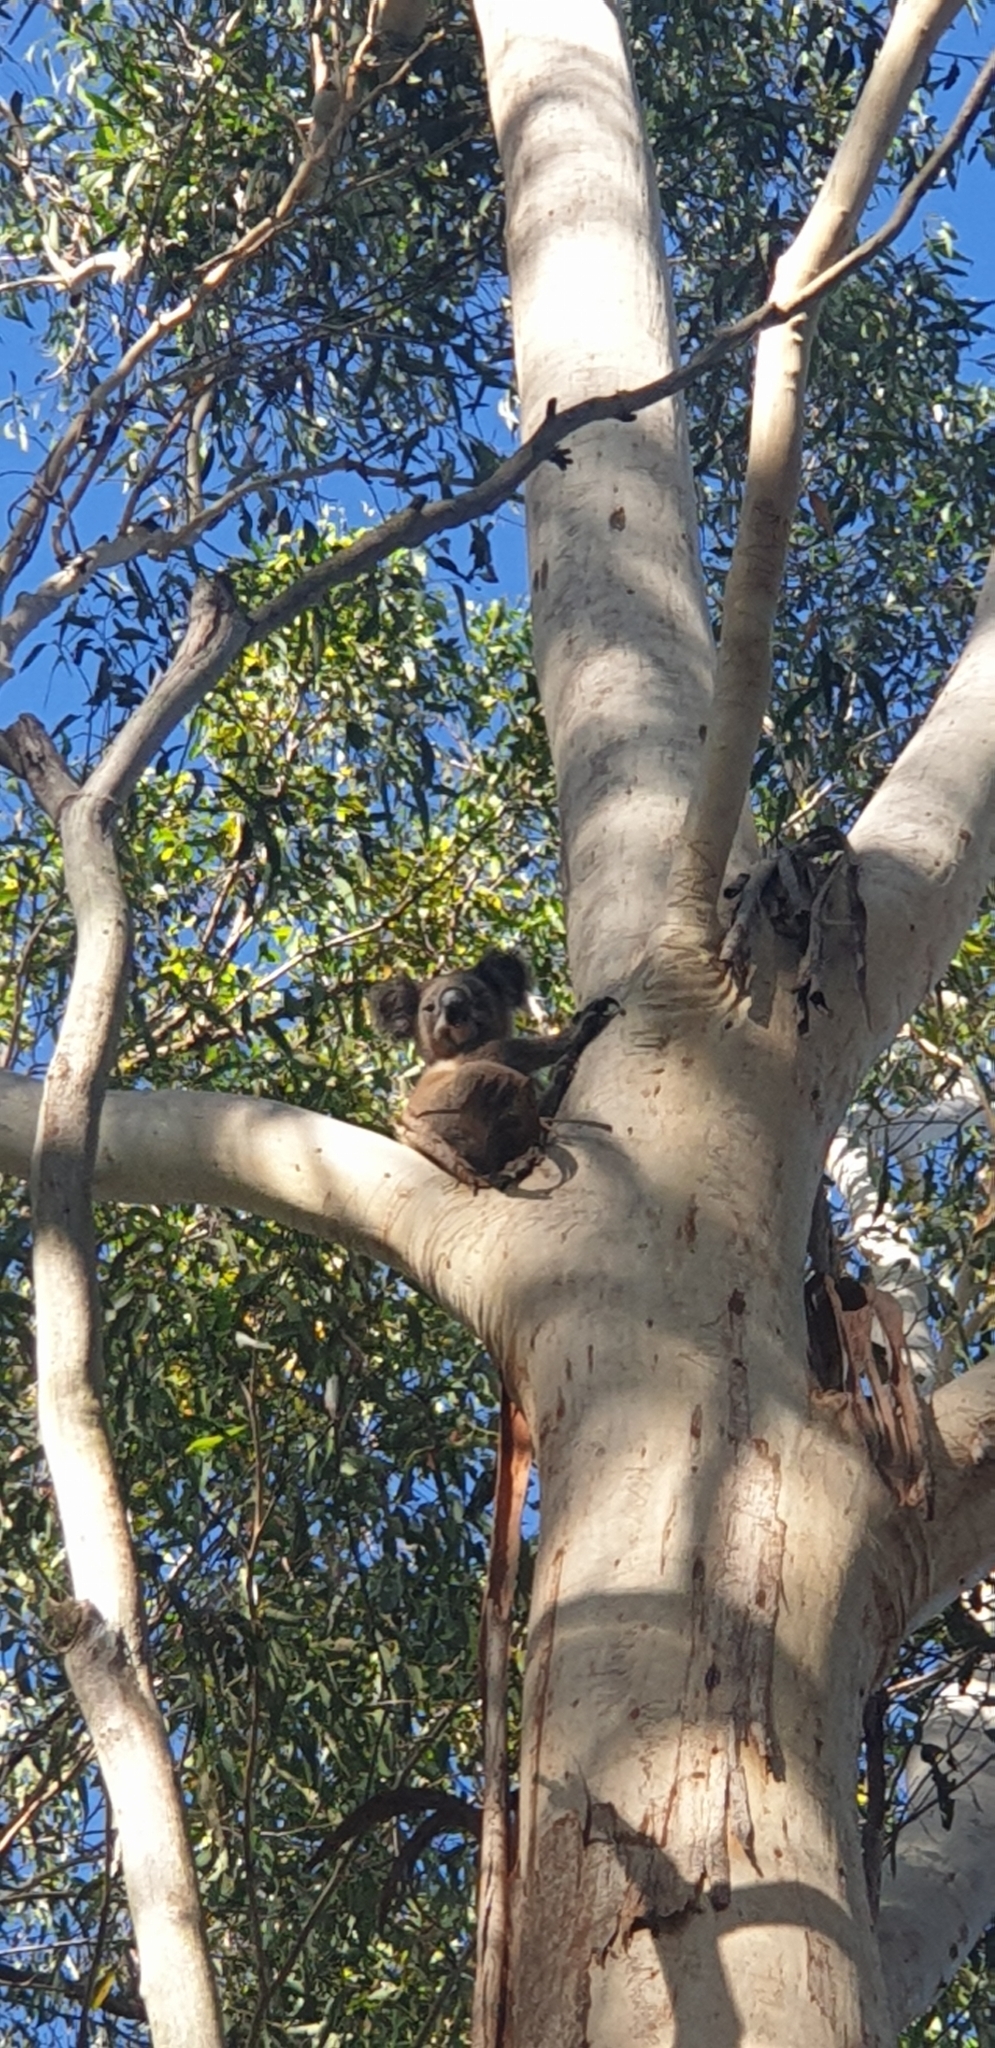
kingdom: Animalia
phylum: Chordata
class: Mammalia
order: Diprotodontia
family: Phascolarctidae
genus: Phascolarctos
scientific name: Phascolarctos cinereus
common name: Koala
